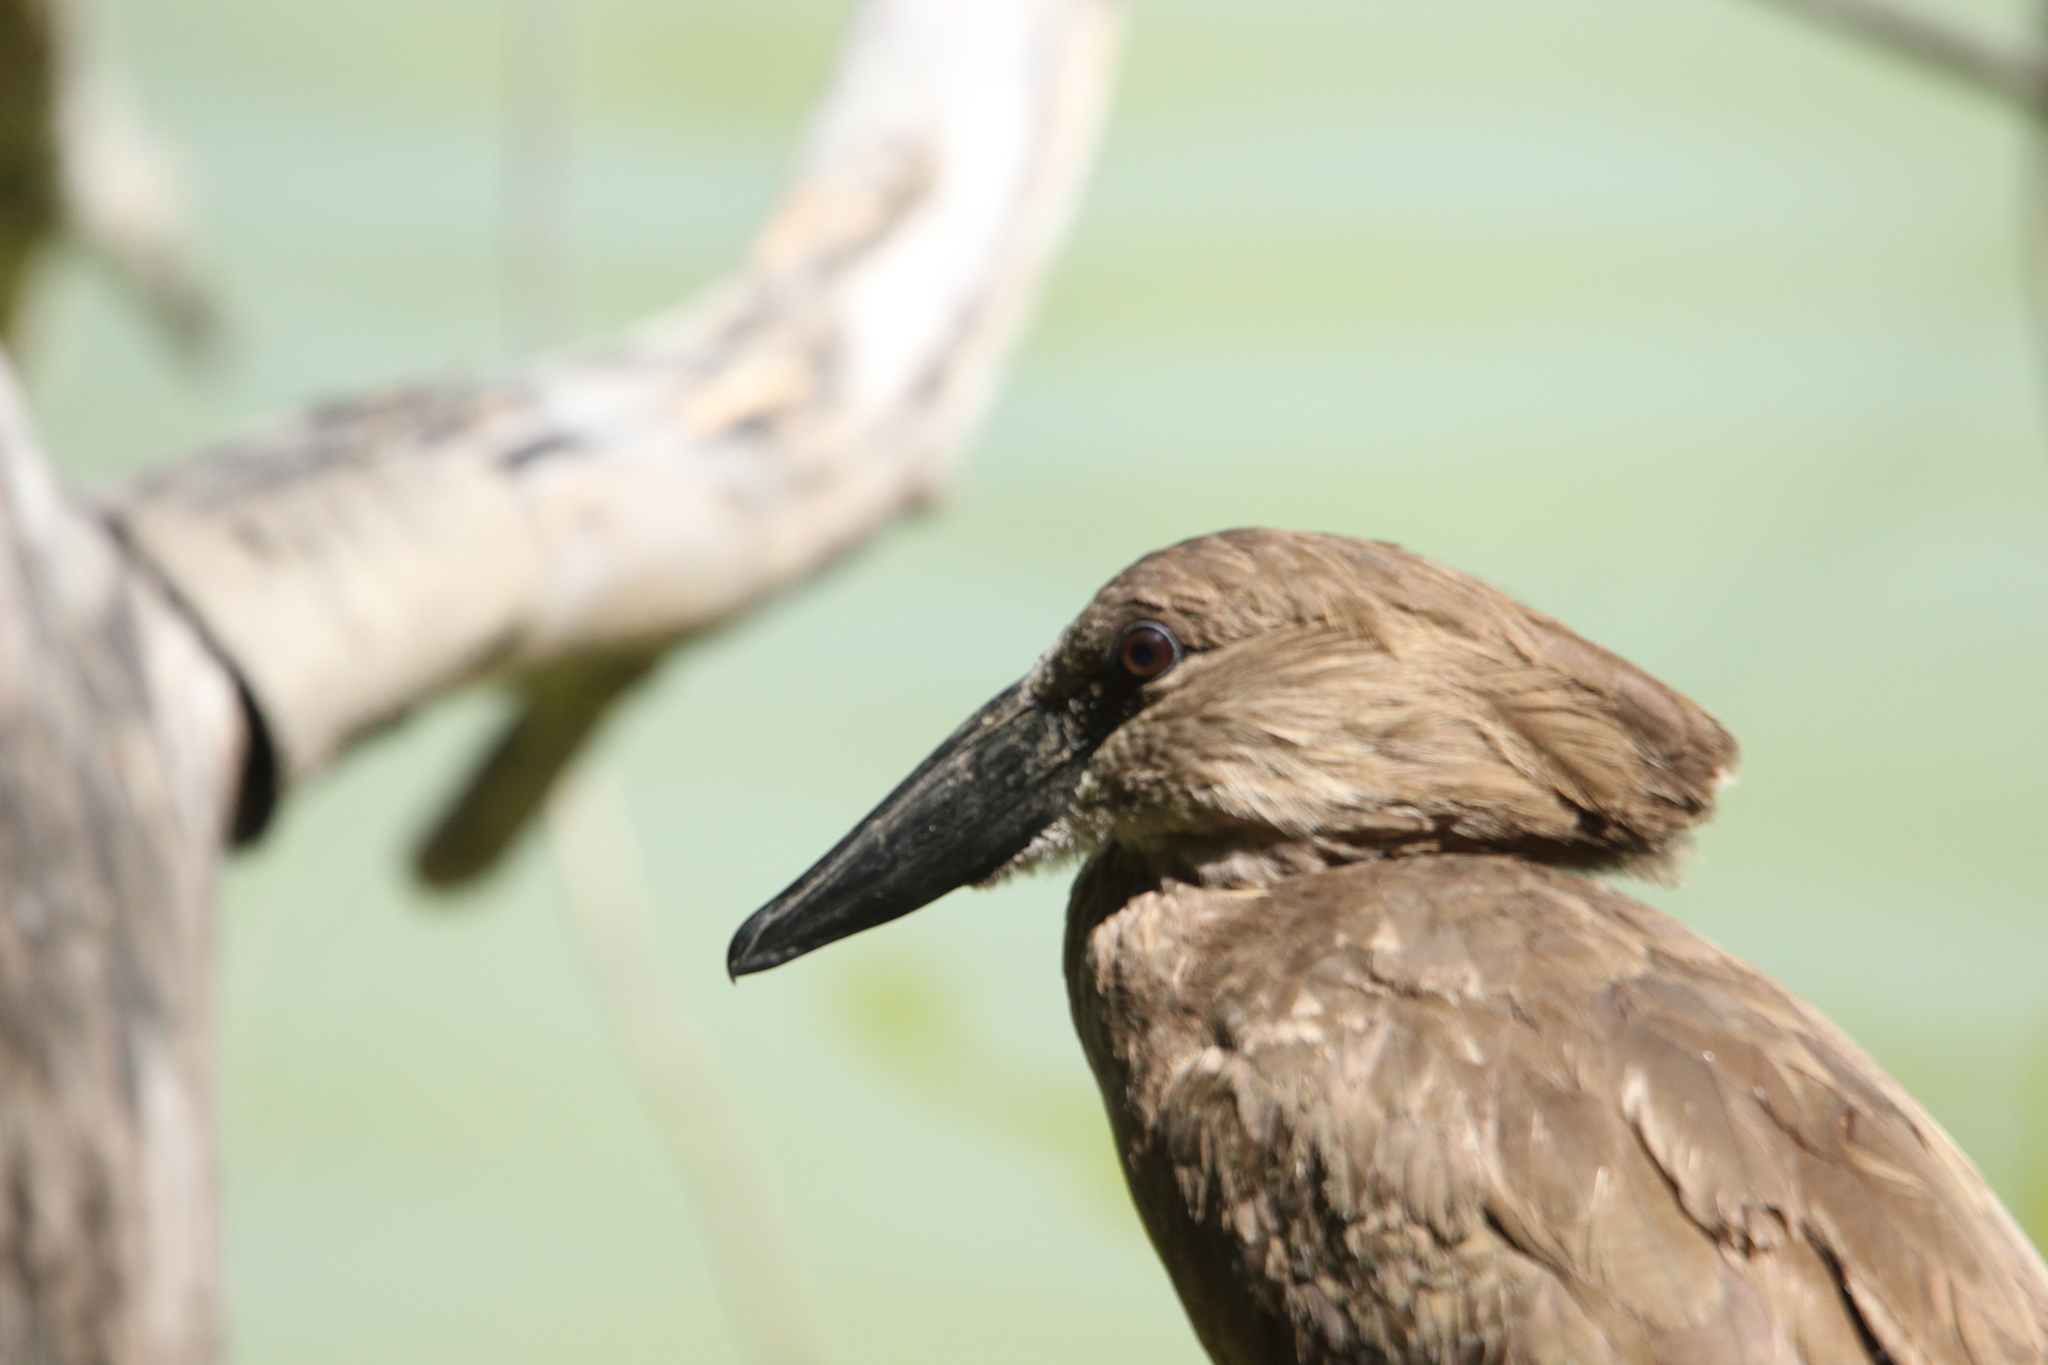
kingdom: Animalia
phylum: Chordata
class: Aves
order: Pelecaniformes
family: Scopidae
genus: Scopus
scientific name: Scopus umbretta
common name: Hamerkop
